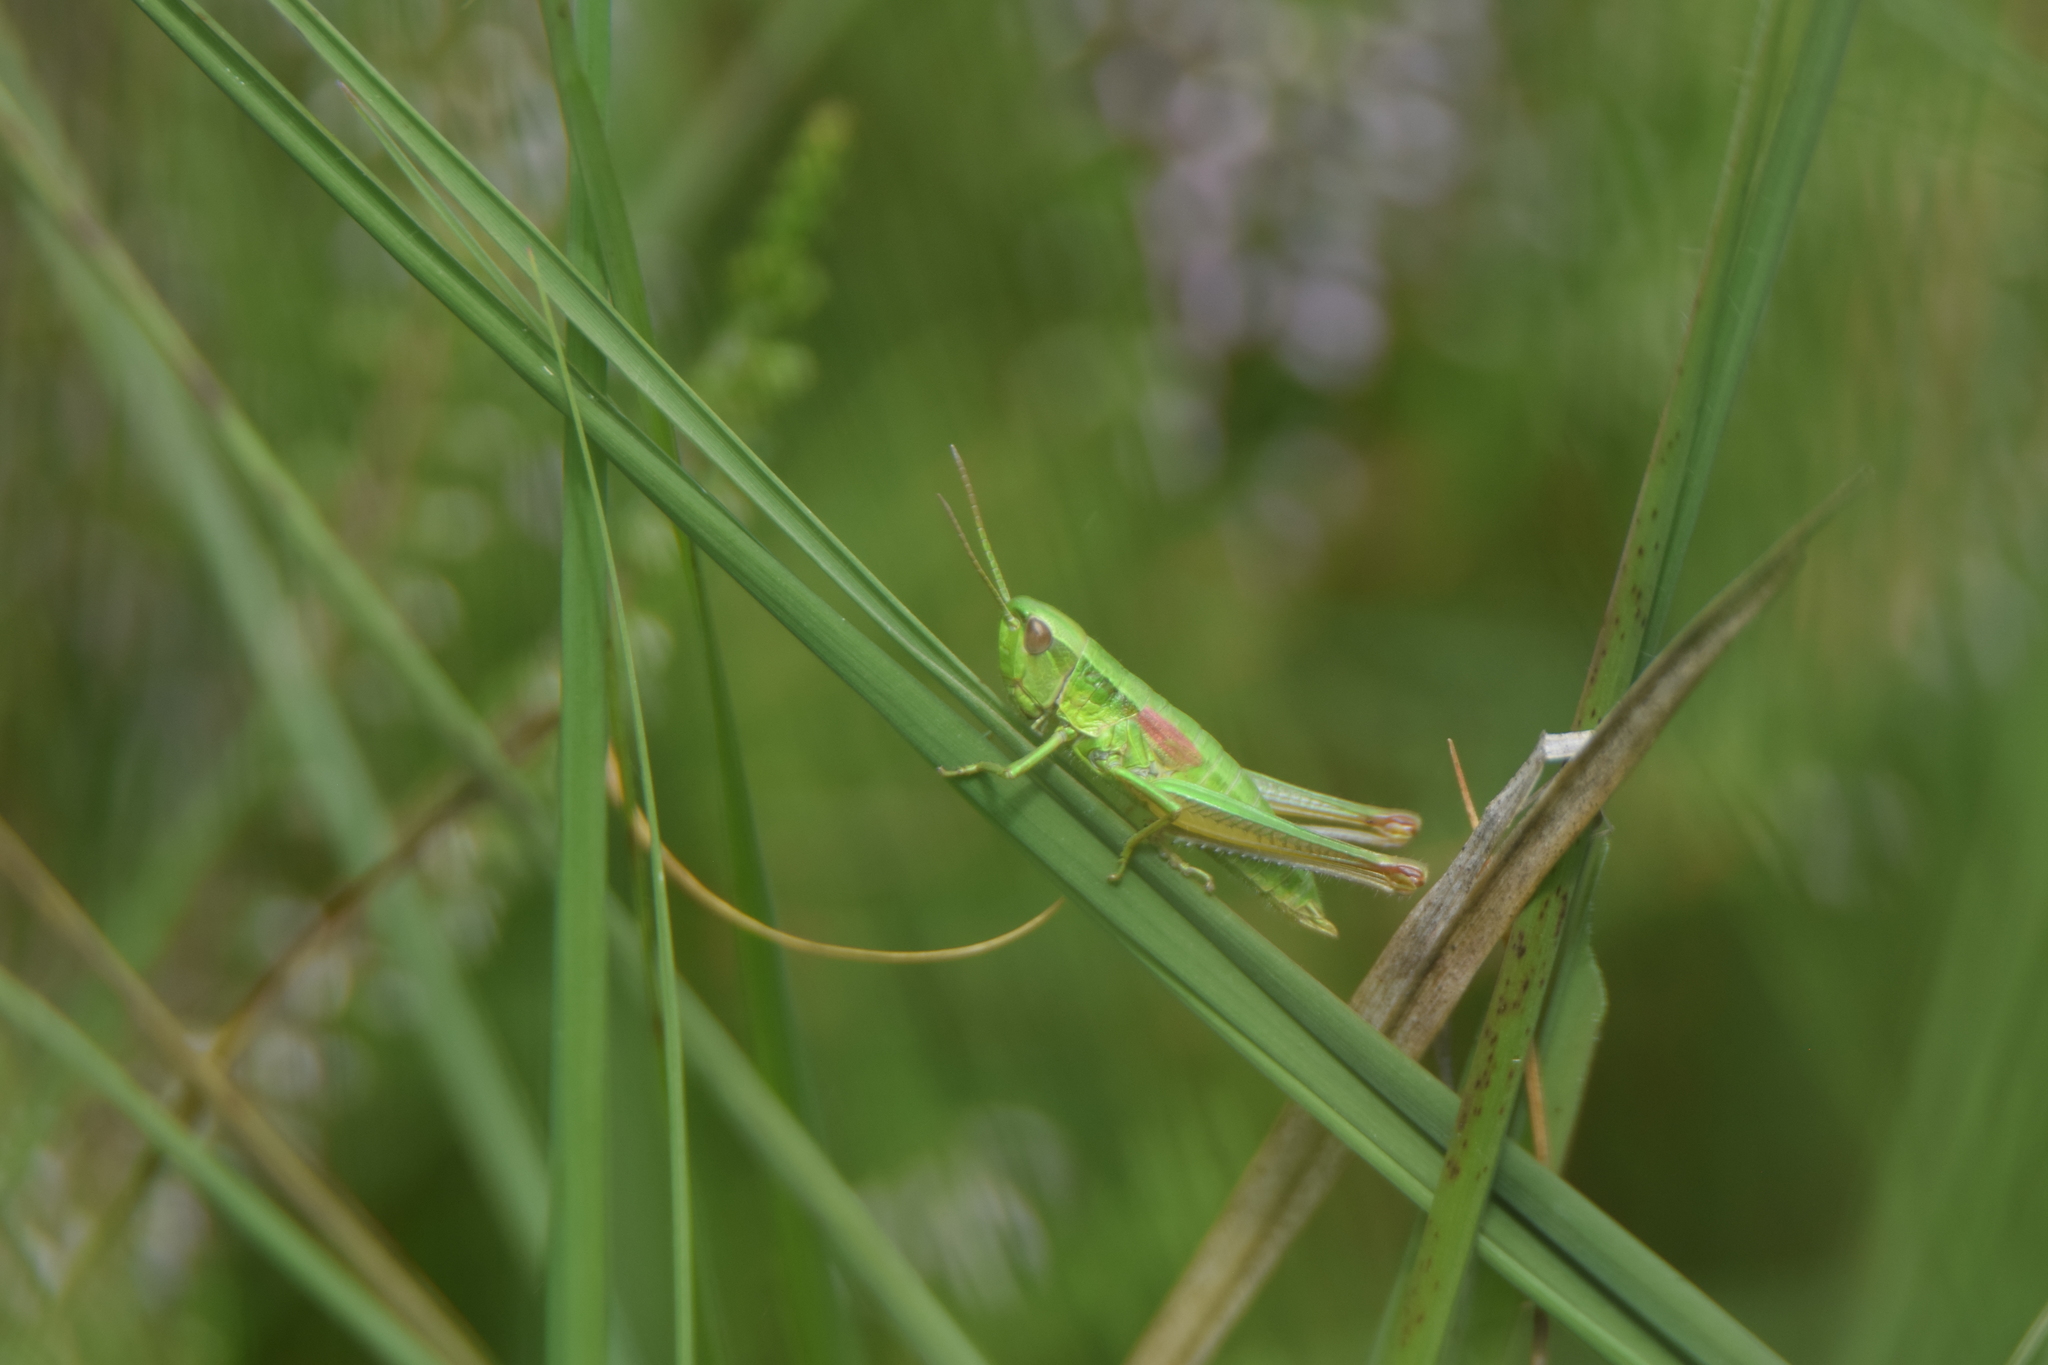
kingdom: Animalia
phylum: Arthropoda
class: Insecta
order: Orthoptera
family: Acrididae
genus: Euthystira
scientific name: Euthystira brachyptera
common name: Small gold grasshopper
